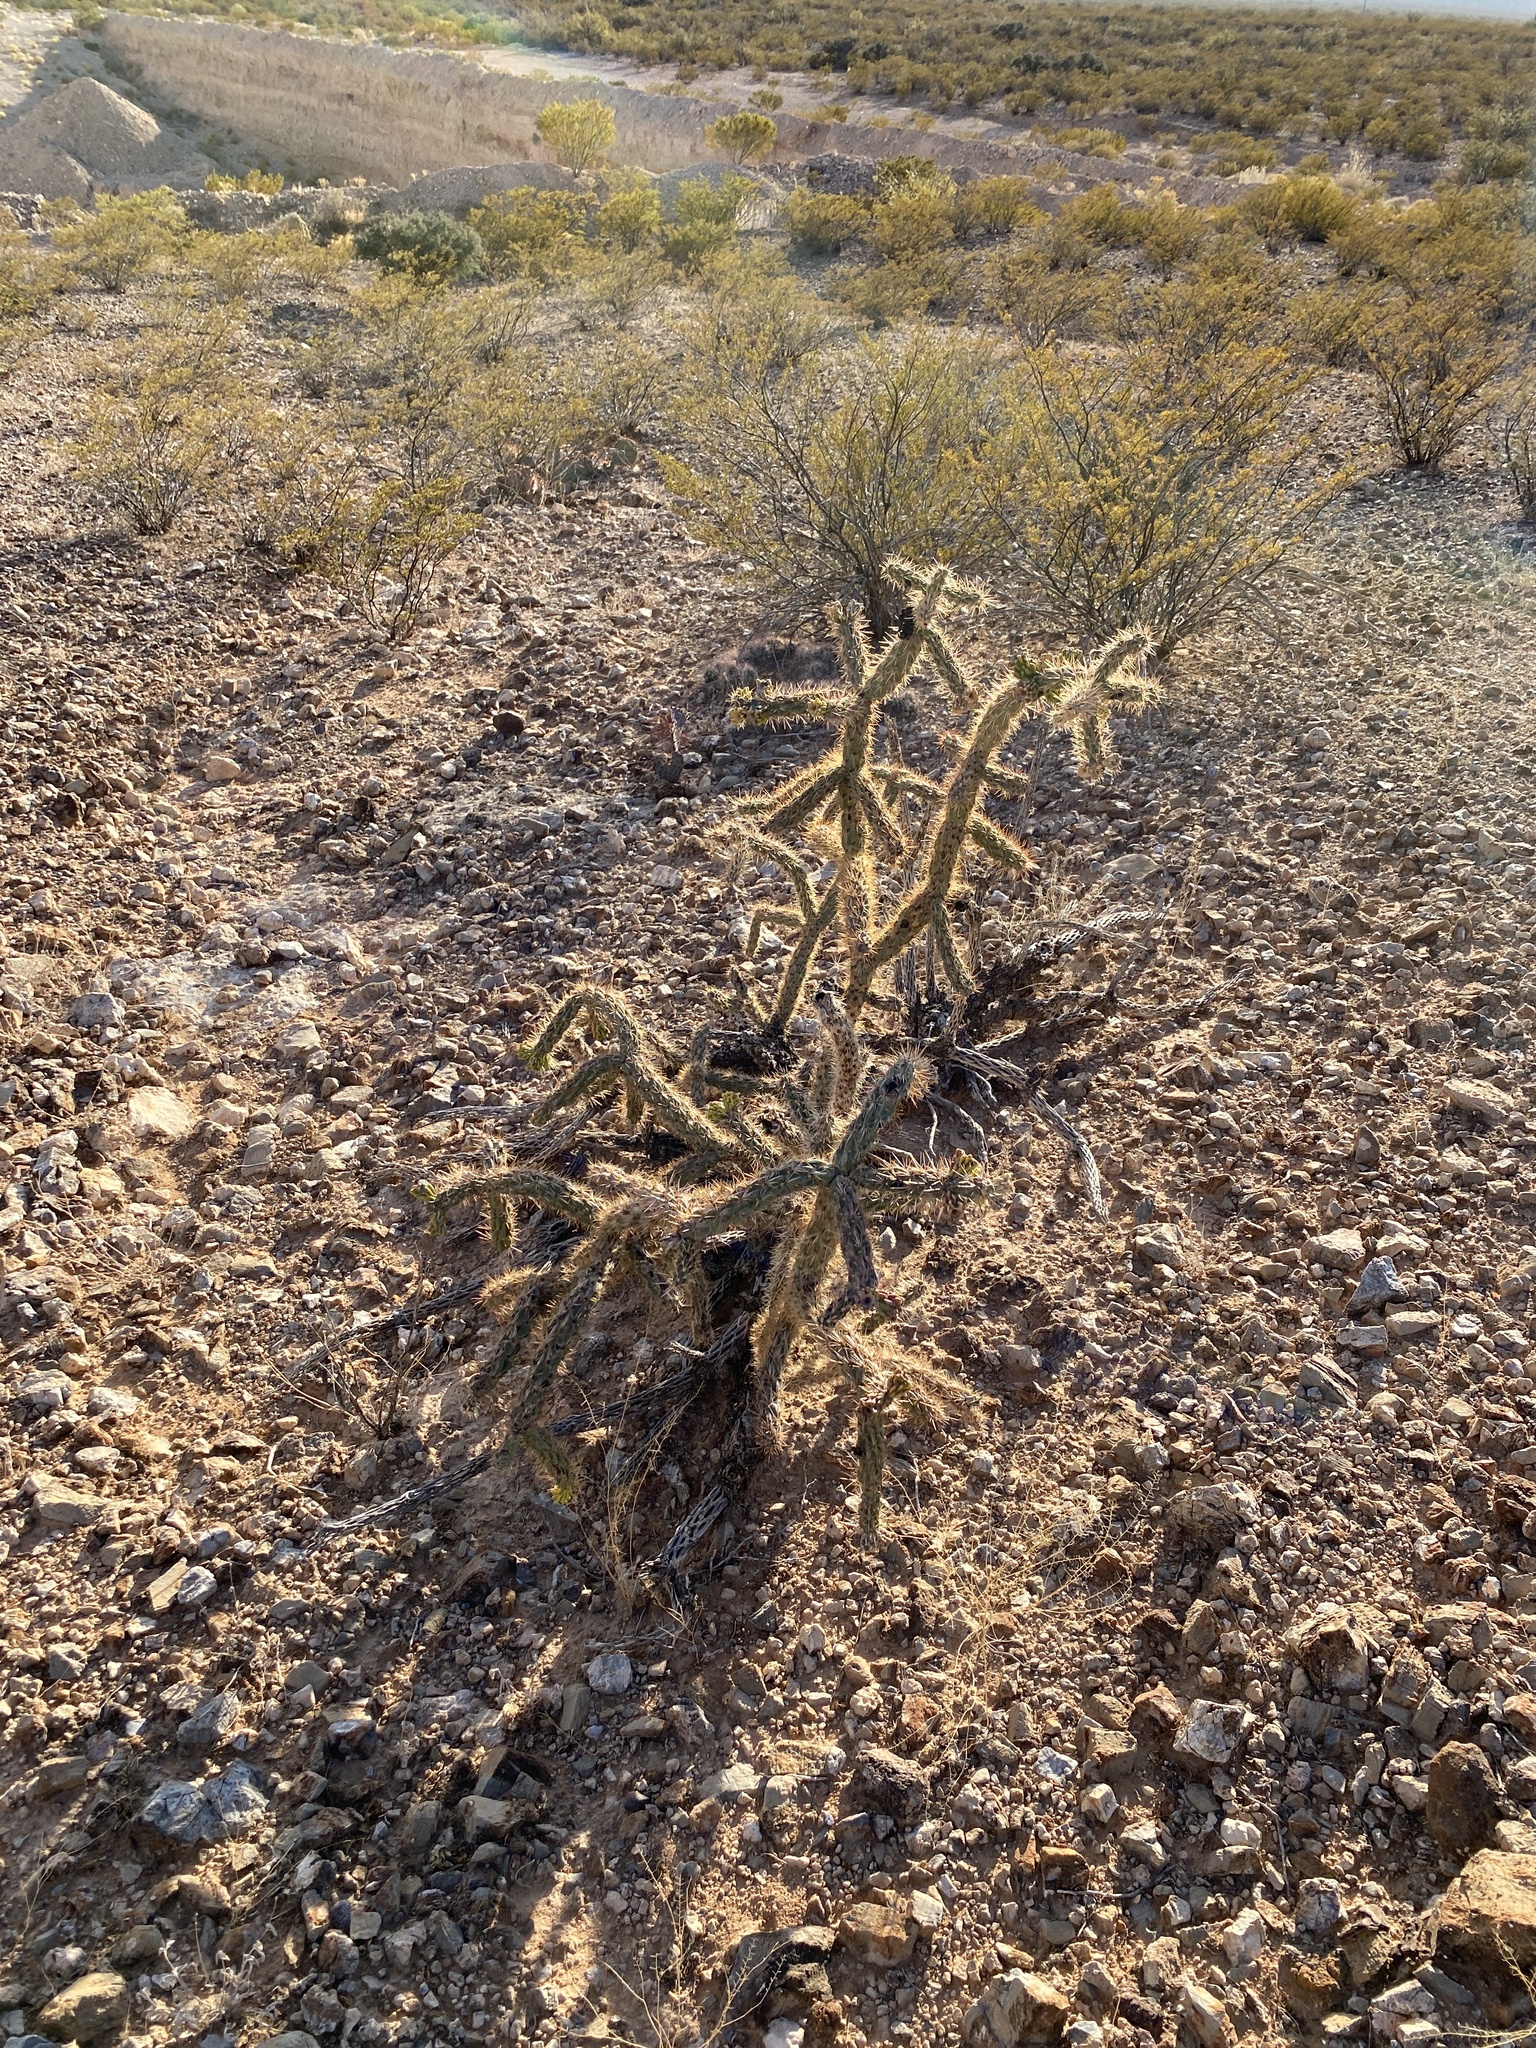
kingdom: Plantae
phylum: Tracheophyta
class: Magnoliopsida
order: Caryophyllales
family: Cactaceae
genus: Cylindropuntia
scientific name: Cylindropuntia imbricata
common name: Candelabrum cactus
